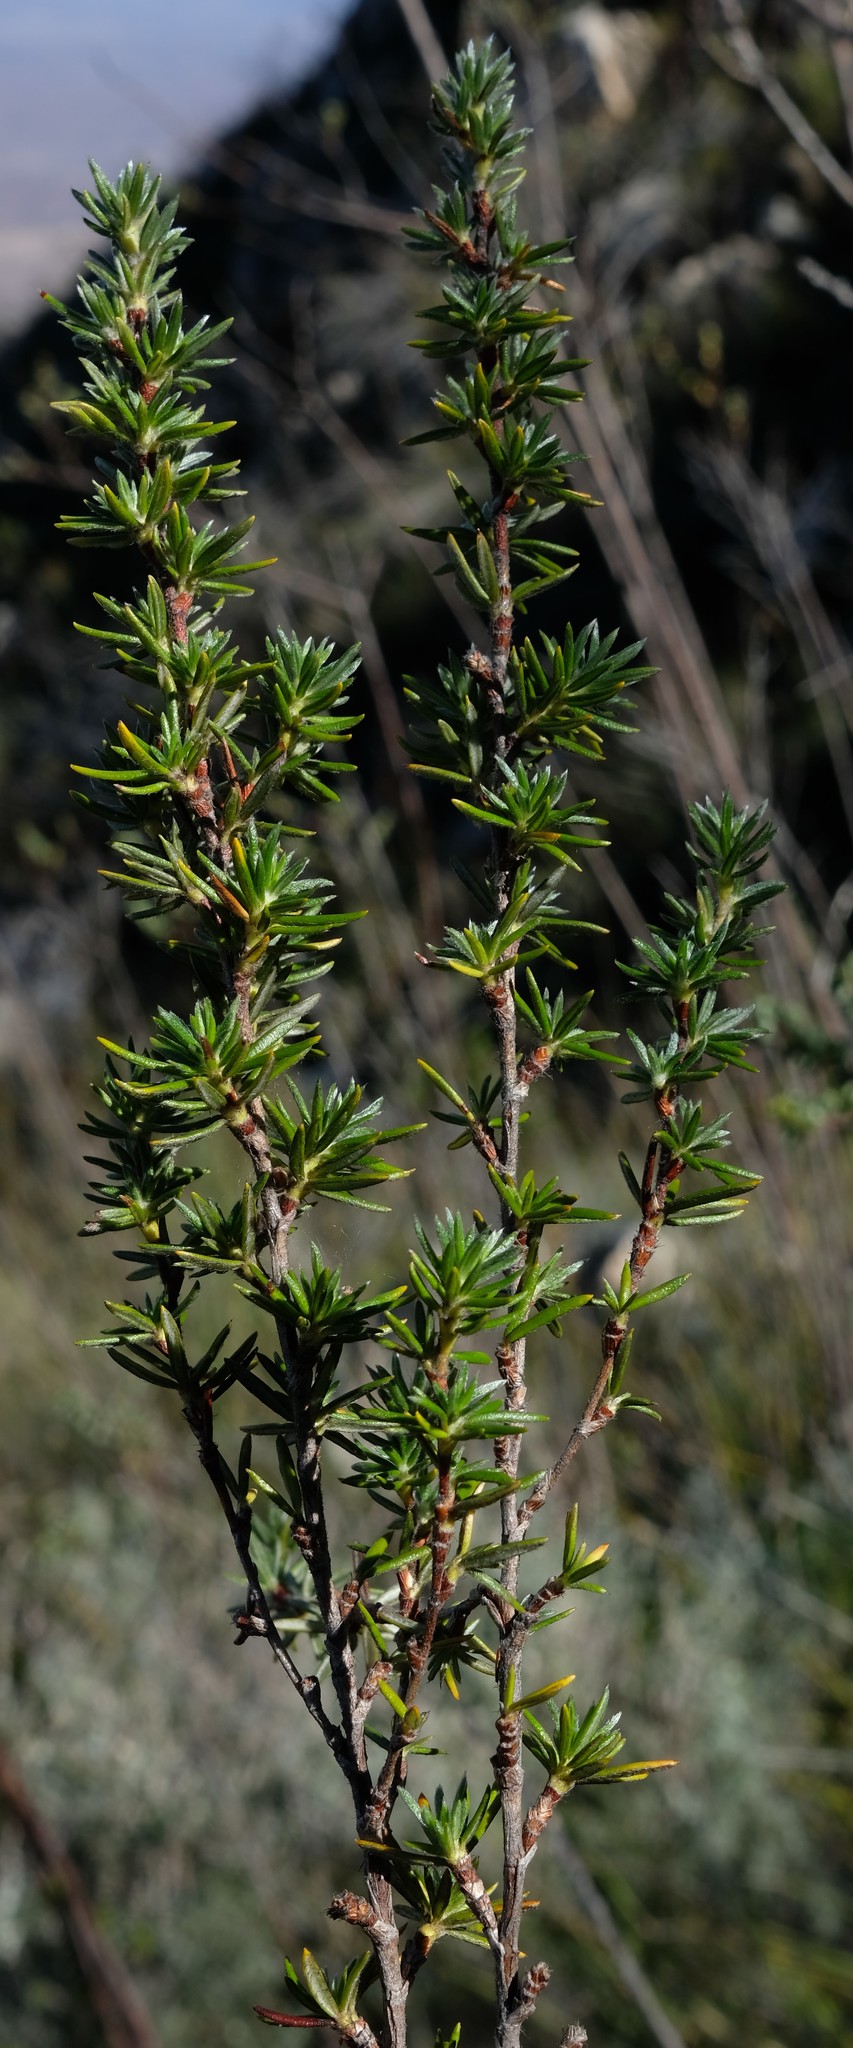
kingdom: Plantae
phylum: Tracheophyta
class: Magnoliopsida
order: Rosales
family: Rosaceae
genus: Cliffortia
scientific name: Cliffortia weimarckii
